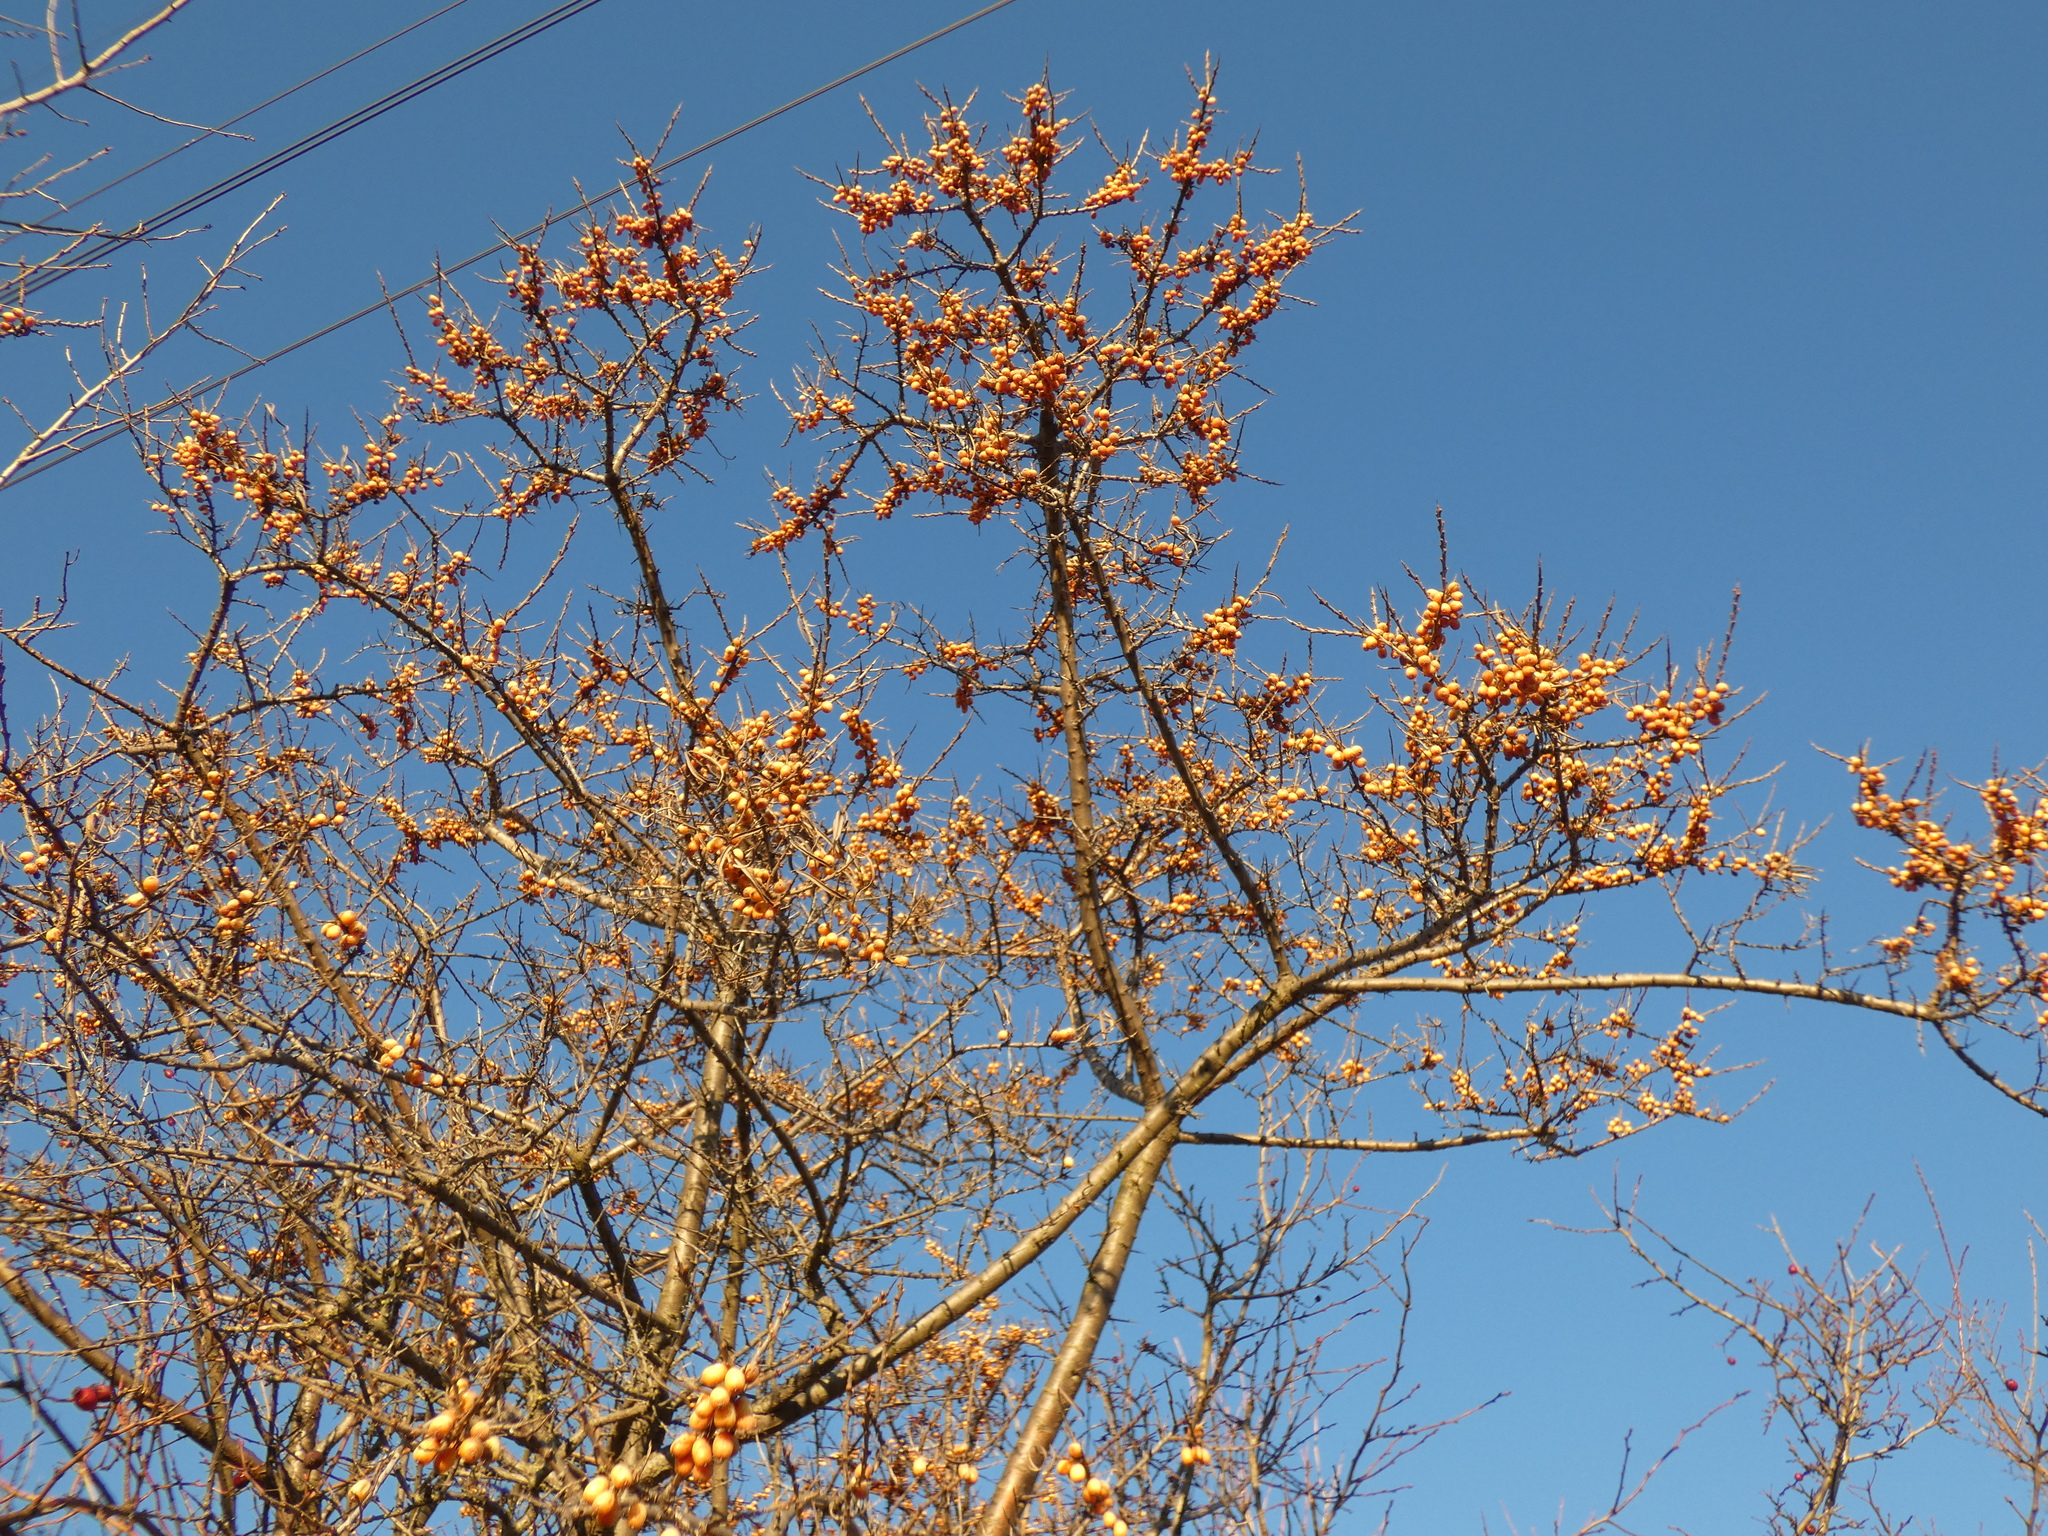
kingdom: Plantae
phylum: Tracheophyta
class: Magnoliopsida
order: Rosales
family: Elaeagnaceae
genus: Hippophae
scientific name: Hippophae rhamnoides
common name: Sea-buckthorn
